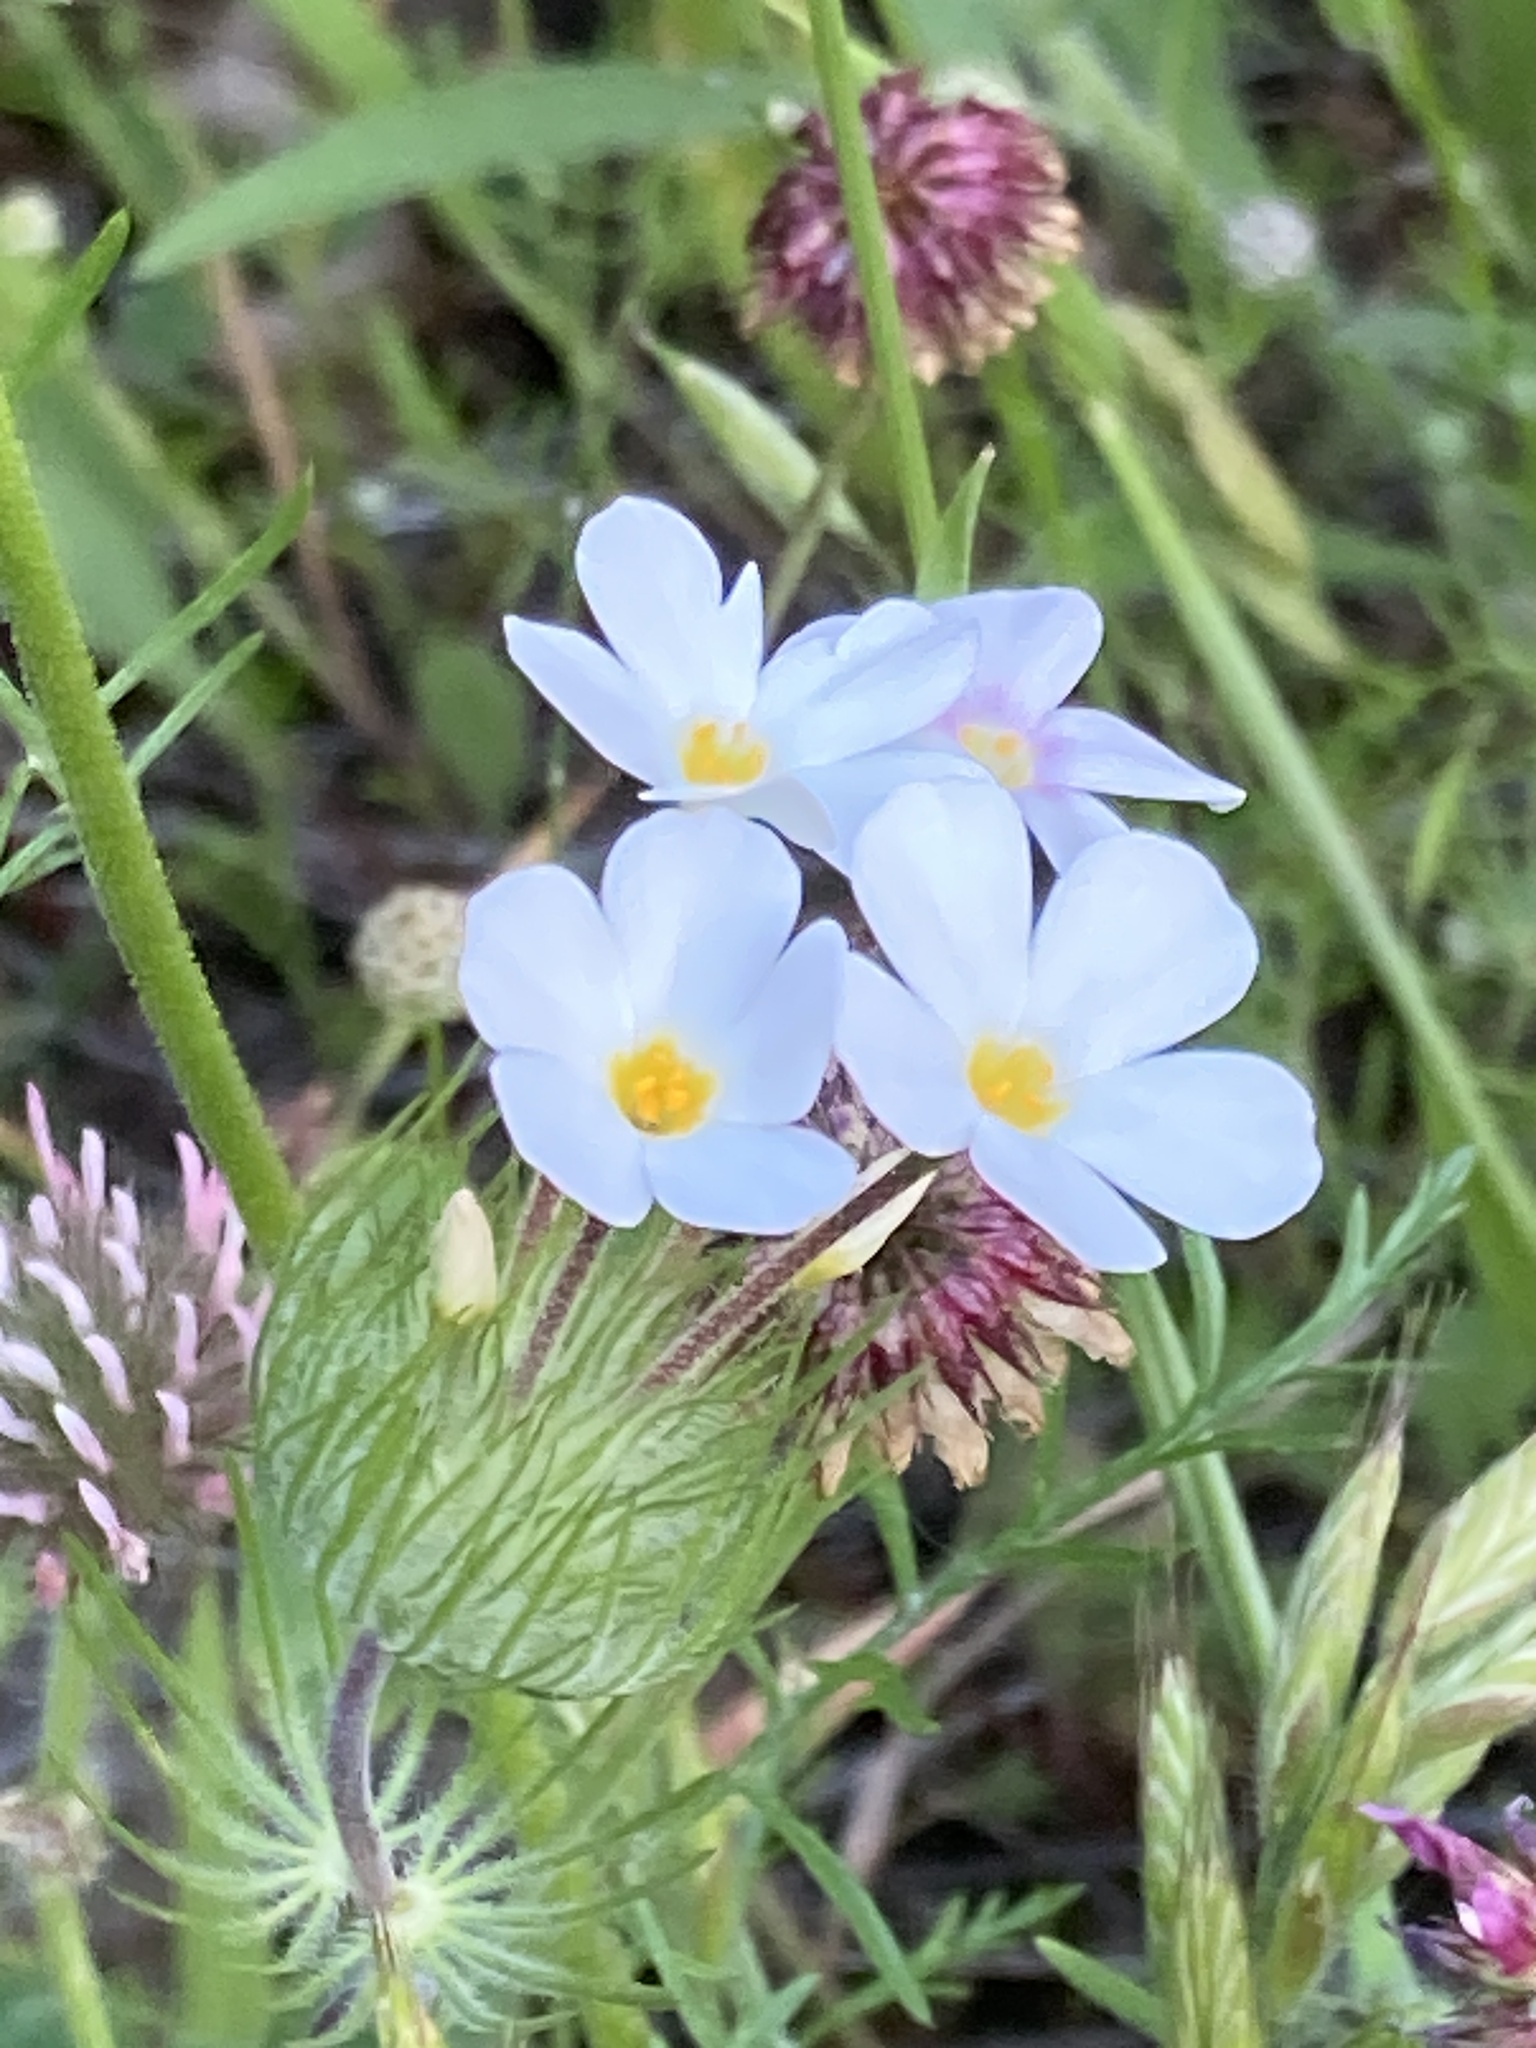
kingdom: Plantae
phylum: Tracheophyta
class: Magnoliopsida
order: Ericales
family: Polemoniaceae
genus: Leptosiphon
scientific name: Leptosiphon montanus
